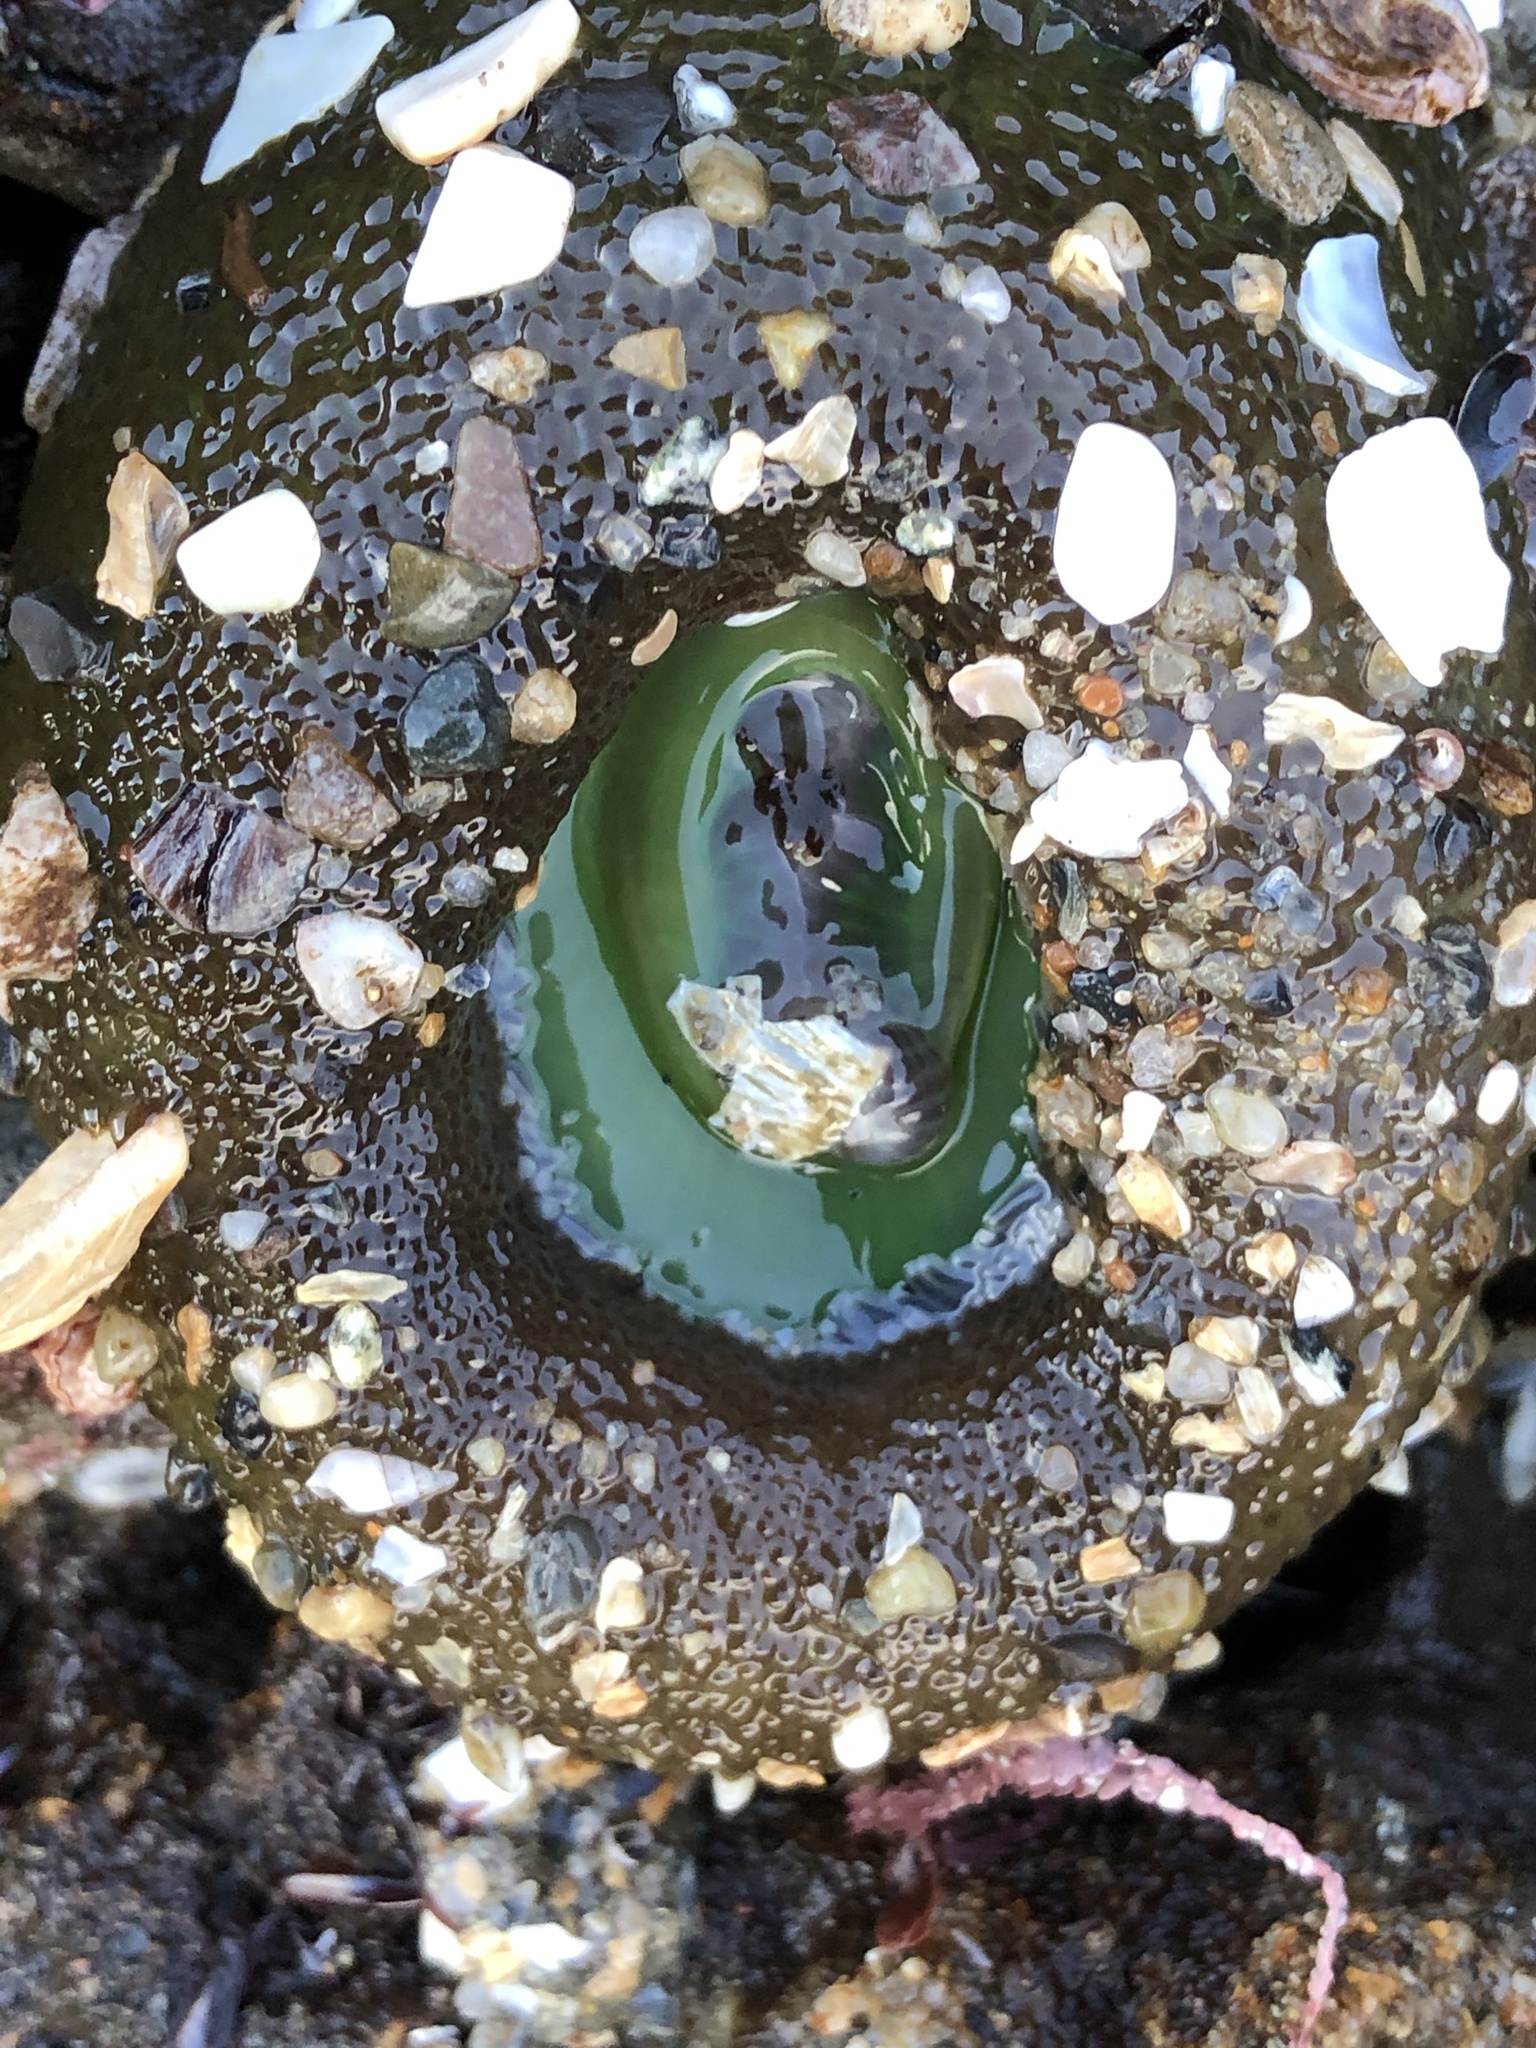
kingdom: Animalia
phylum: Cnidaria
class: Anthozoa
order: Actiniaria
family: Actiniidae
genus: Anthopleura
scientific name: Anthopleura xanthogrammica
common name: Giant green anemone
